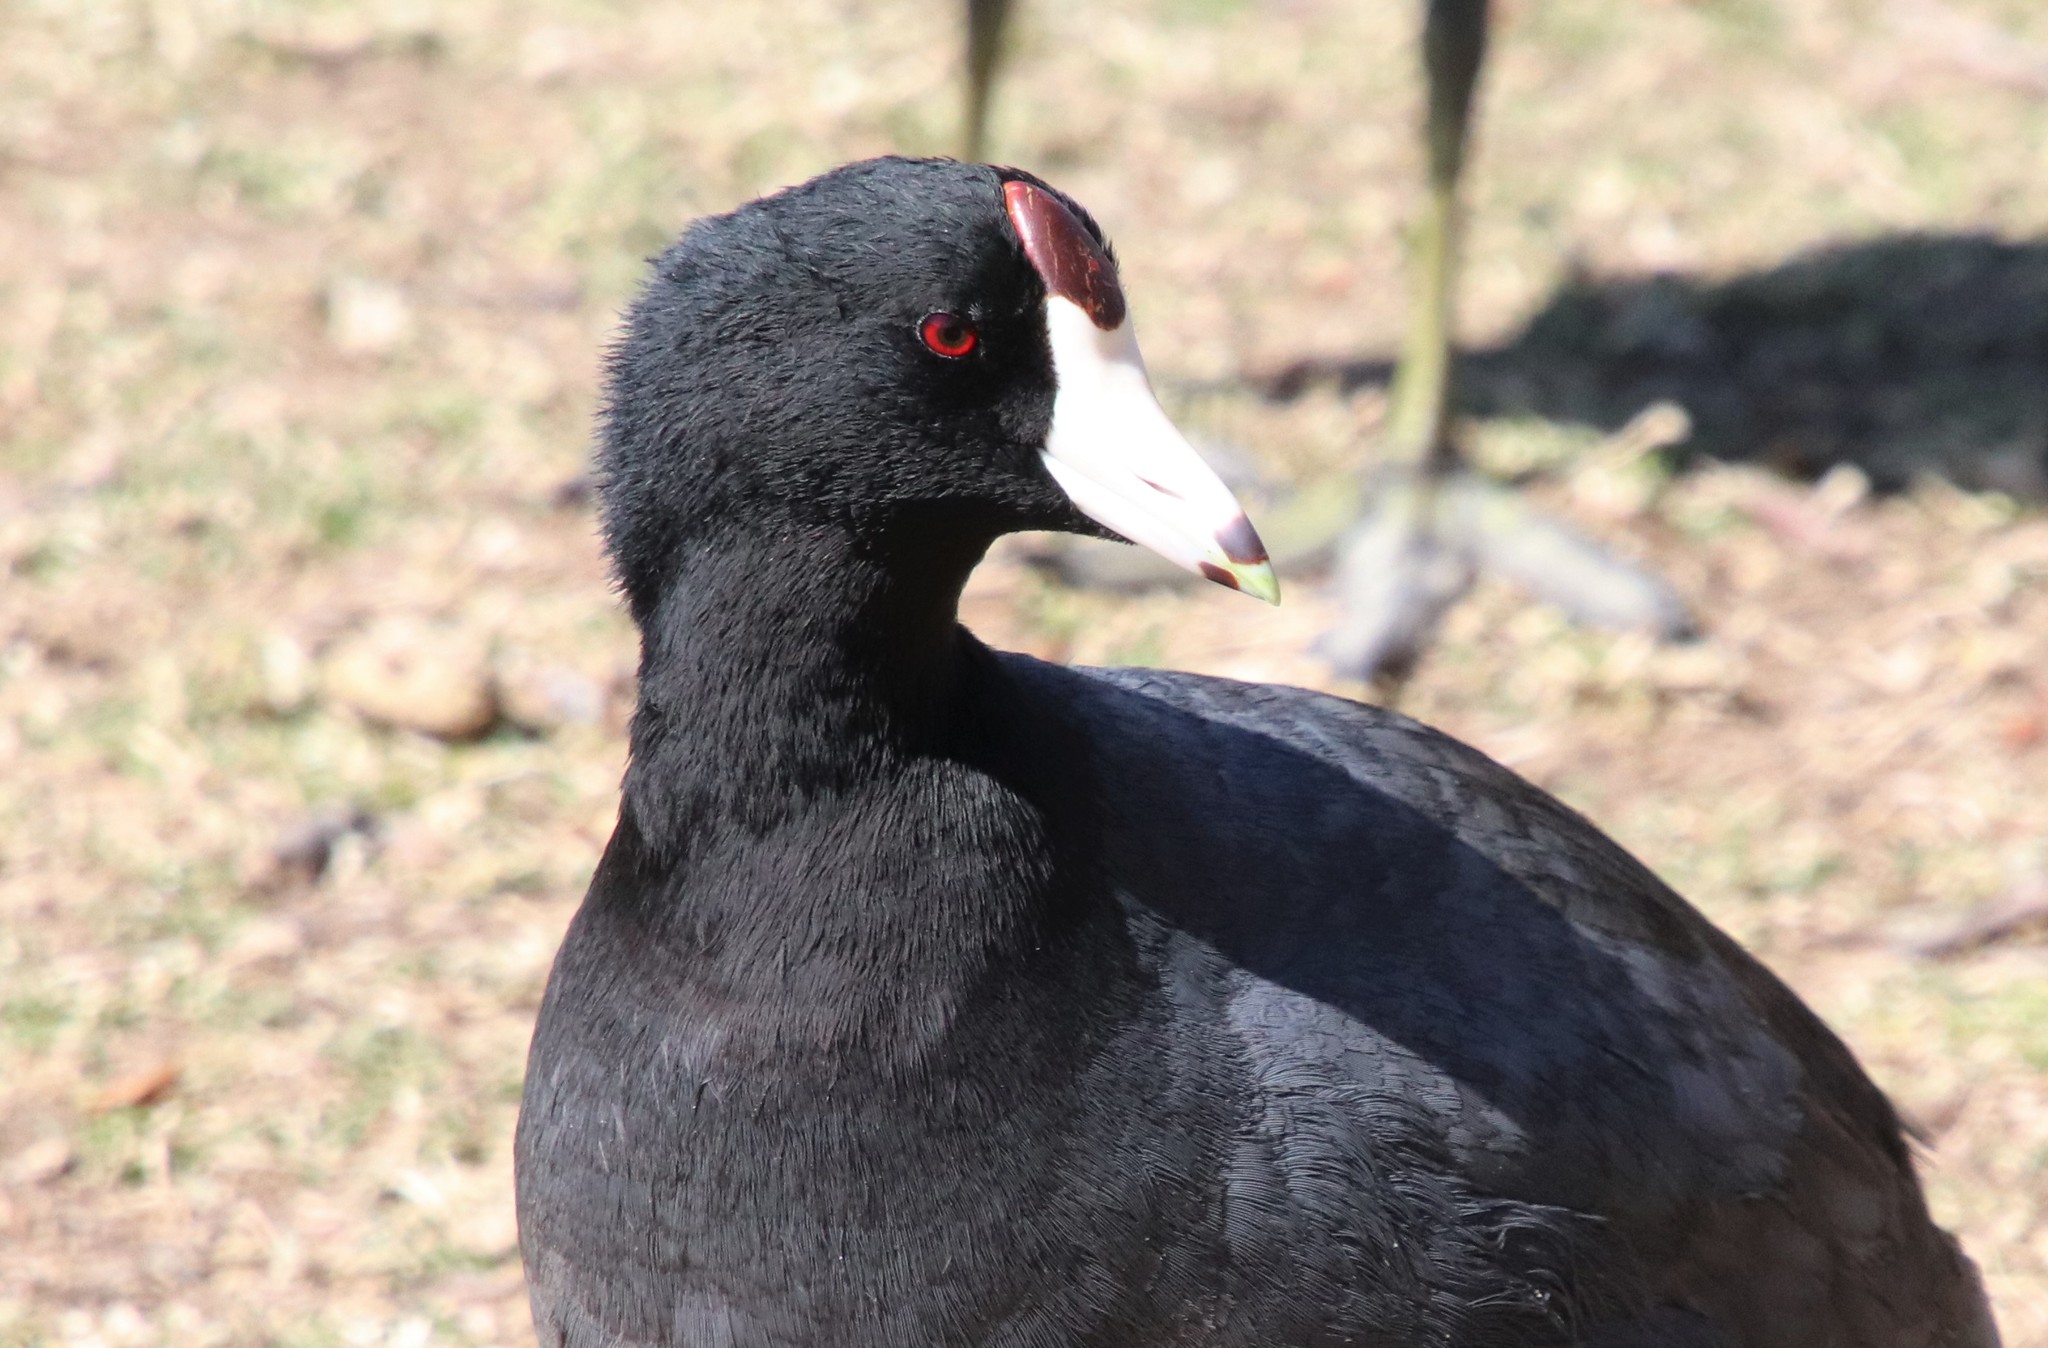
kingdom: Animalia
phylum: Chordata
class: Aves
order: Gruiformes
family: Rallidae
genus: Fulica
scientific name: Fulica americana
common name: American coot
